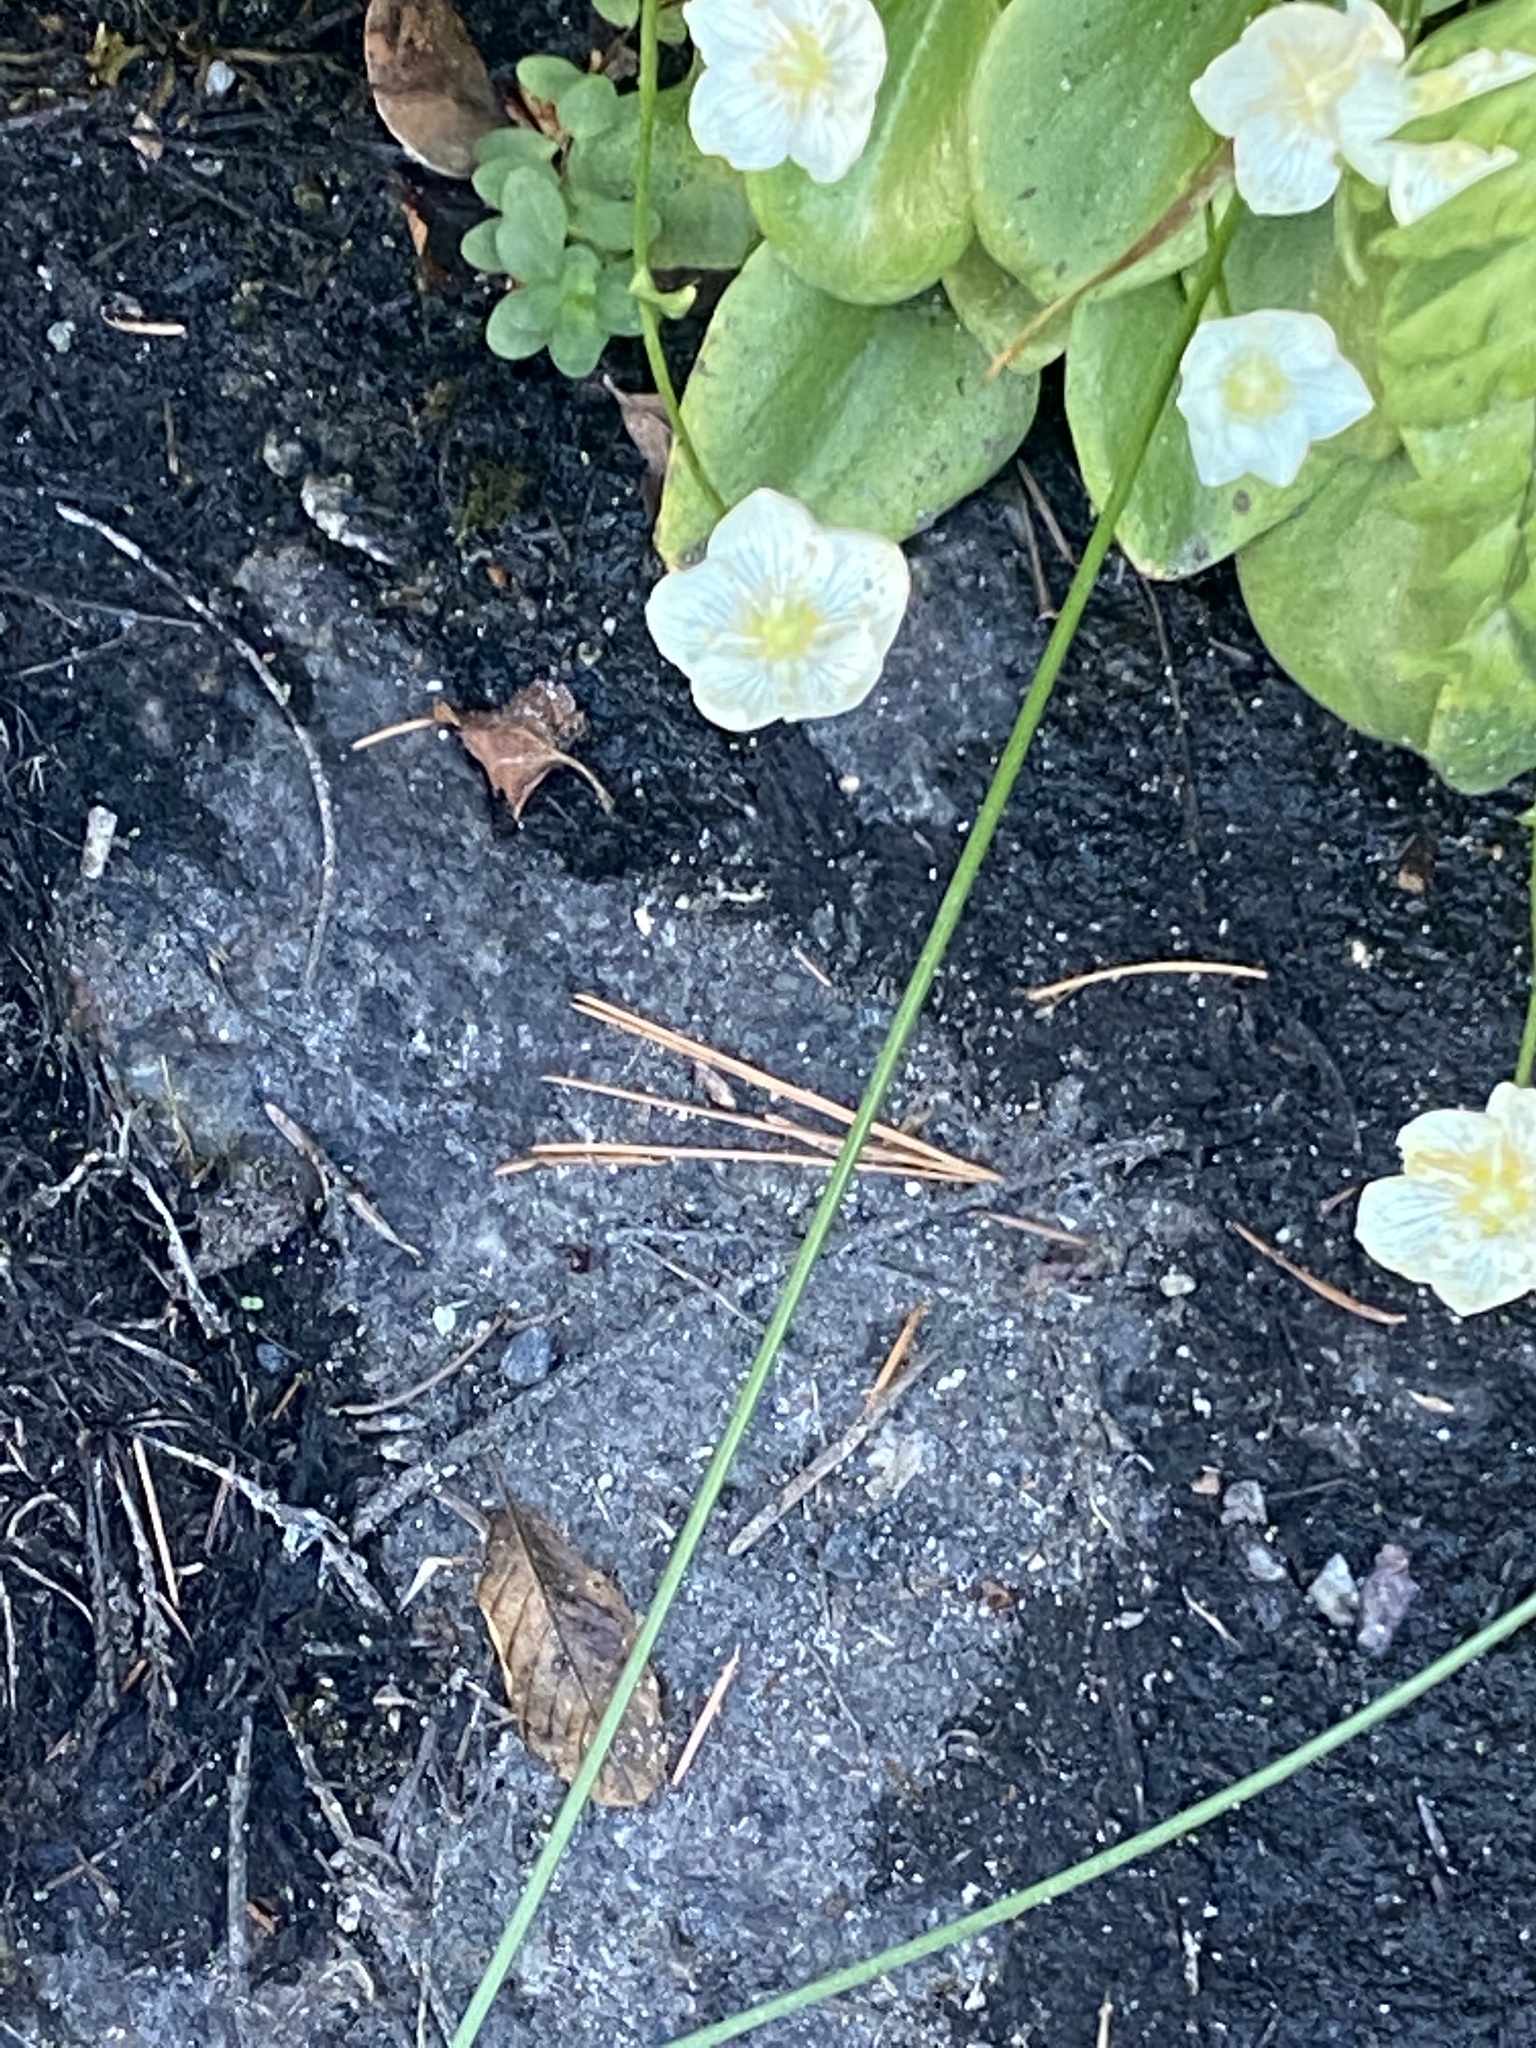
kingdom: Plantae
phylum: Tracheophyta
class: Magnoliopsida
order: Celastrales
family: Parnassiaceae
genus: Parnassia
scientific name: Parnassia palustris
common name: Grass-of-parnassus
